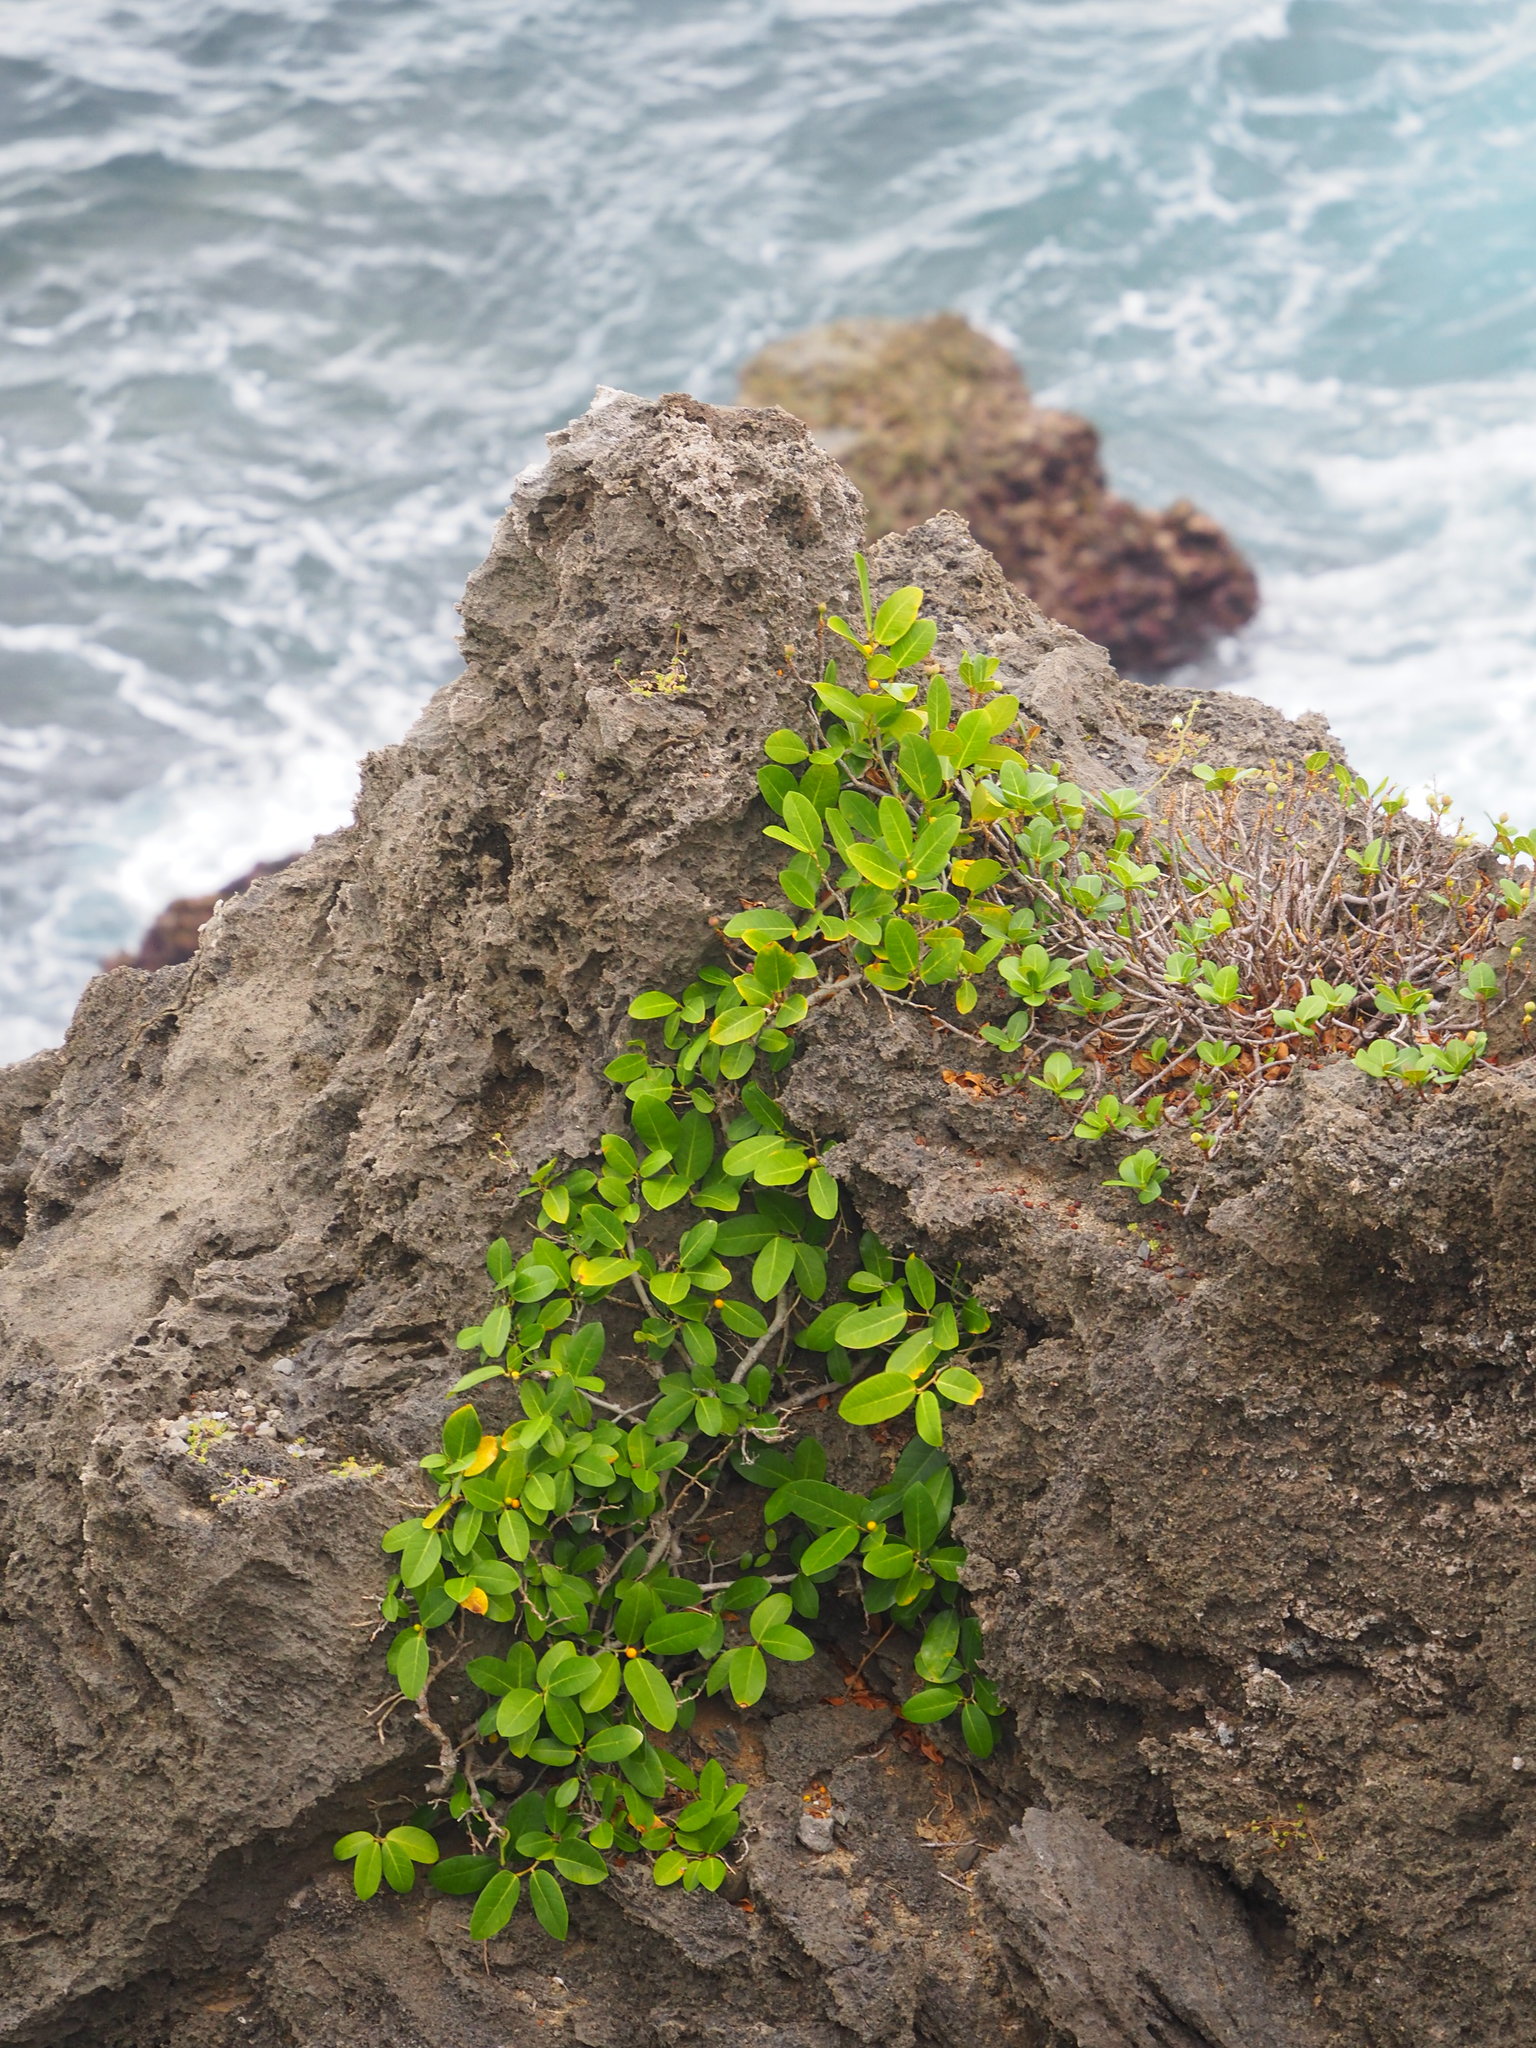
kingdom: Plantae
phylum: Tracheophyta
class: Magnoliopsida
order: Rosales
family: Moraceae
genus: Ficus
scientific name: Ficus tinctoria
